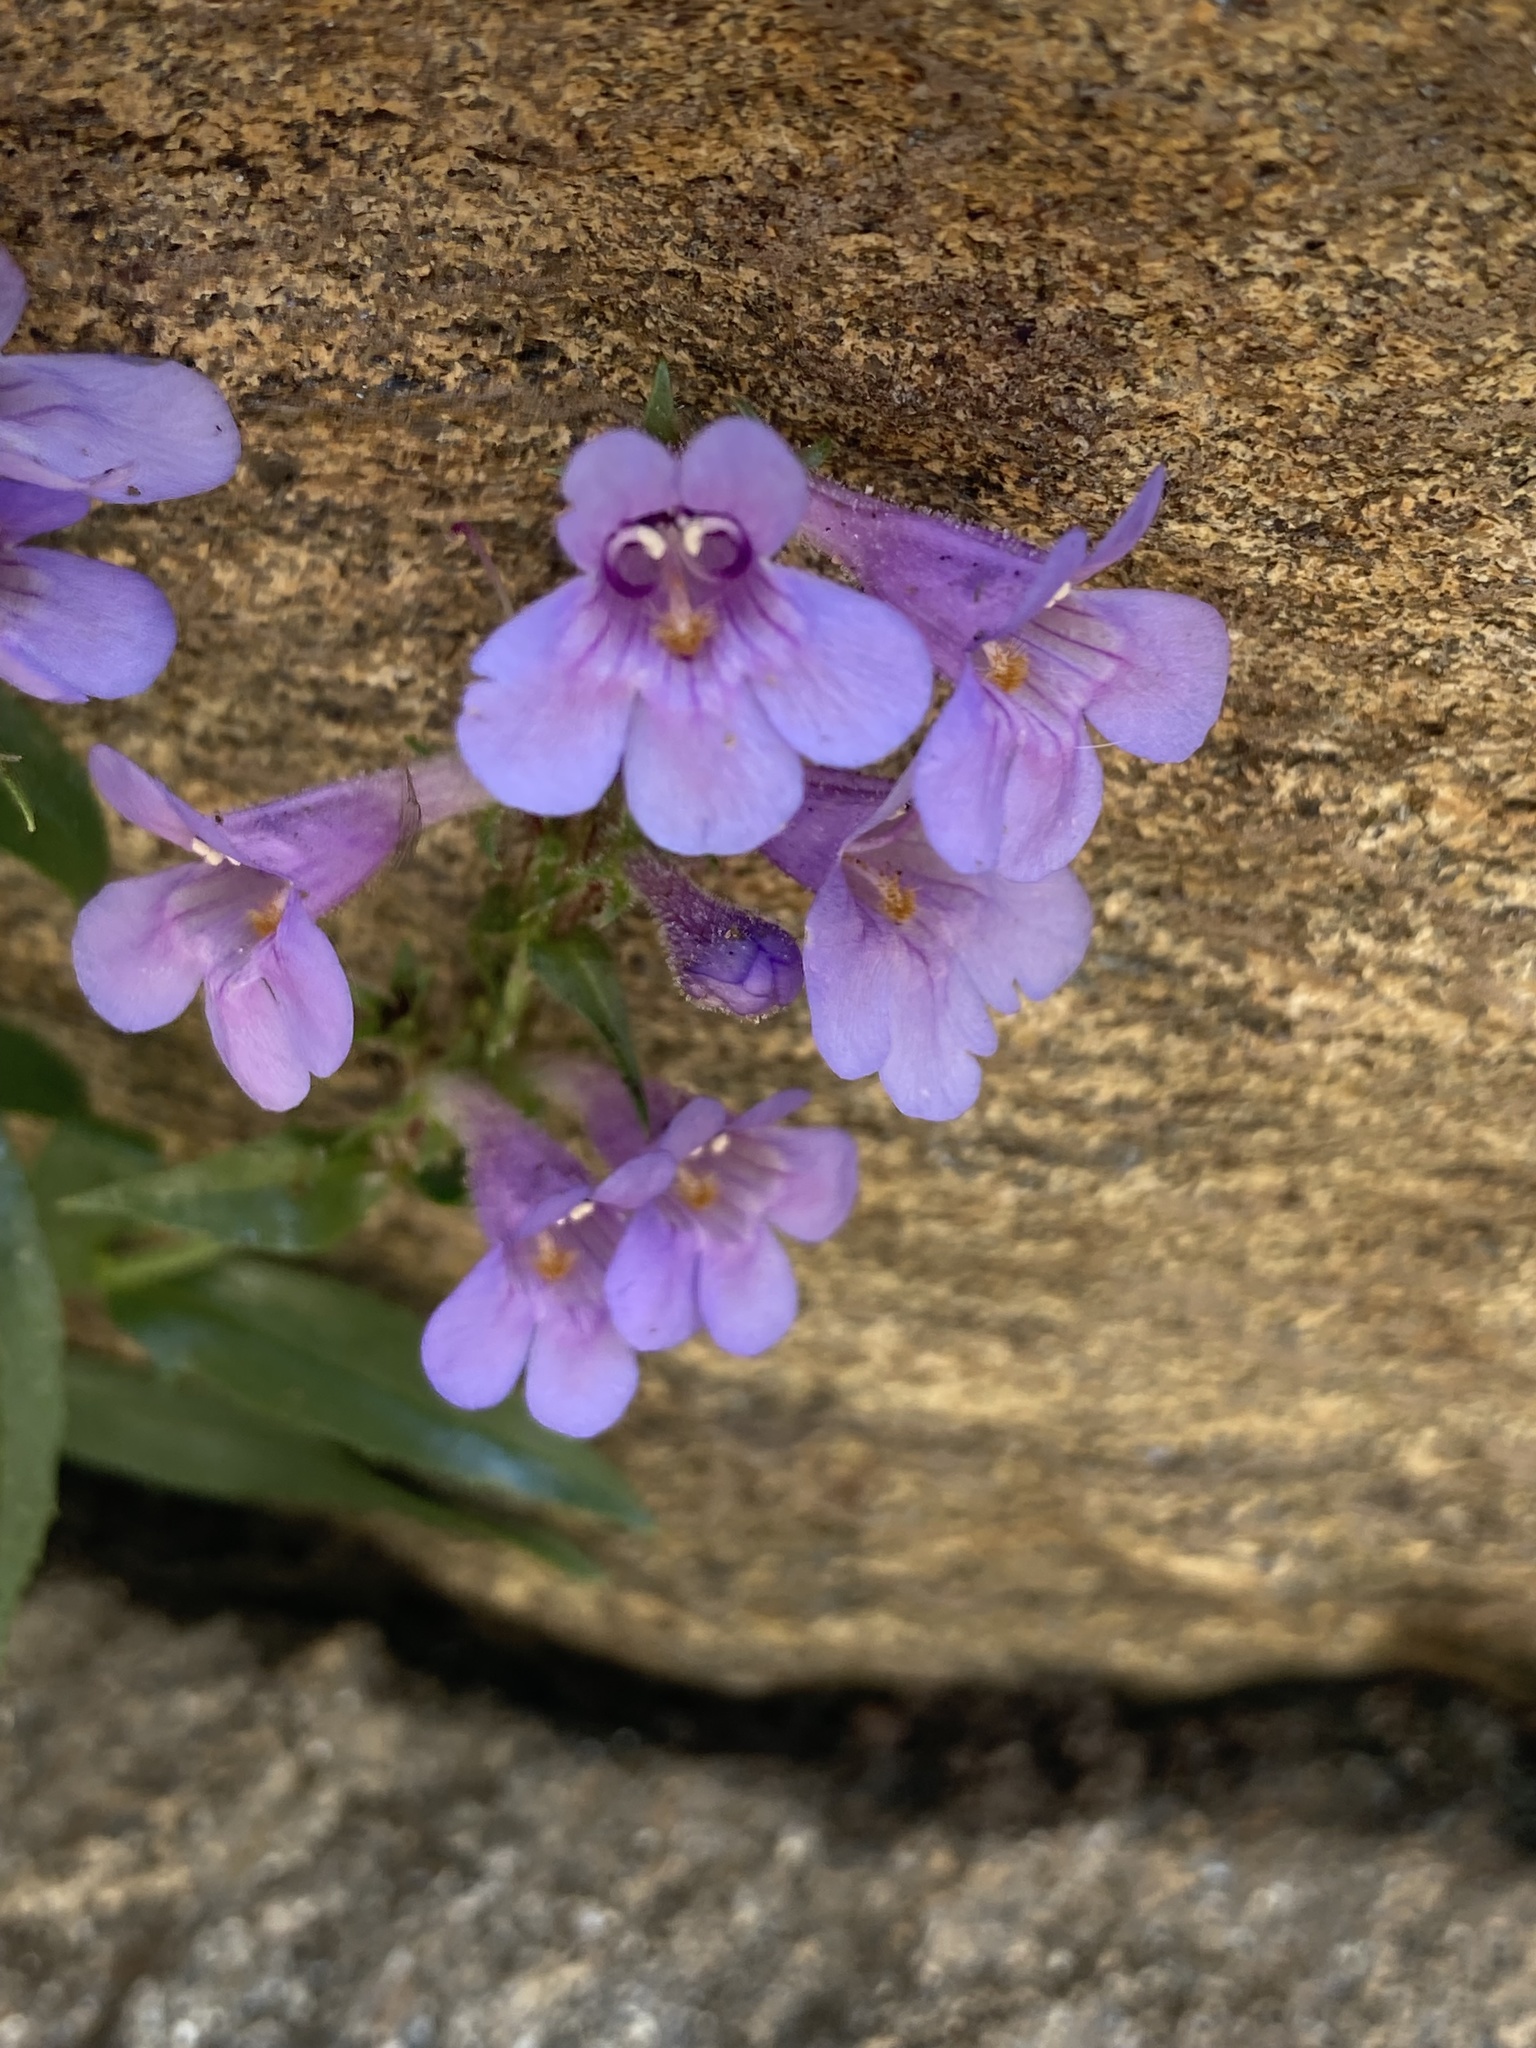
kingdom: Plantae
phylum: Tracheophyta
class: Magnoliopsida
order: Lamiales
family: Plantaginaceae
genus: Penstemon
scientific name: Penstemon virens
